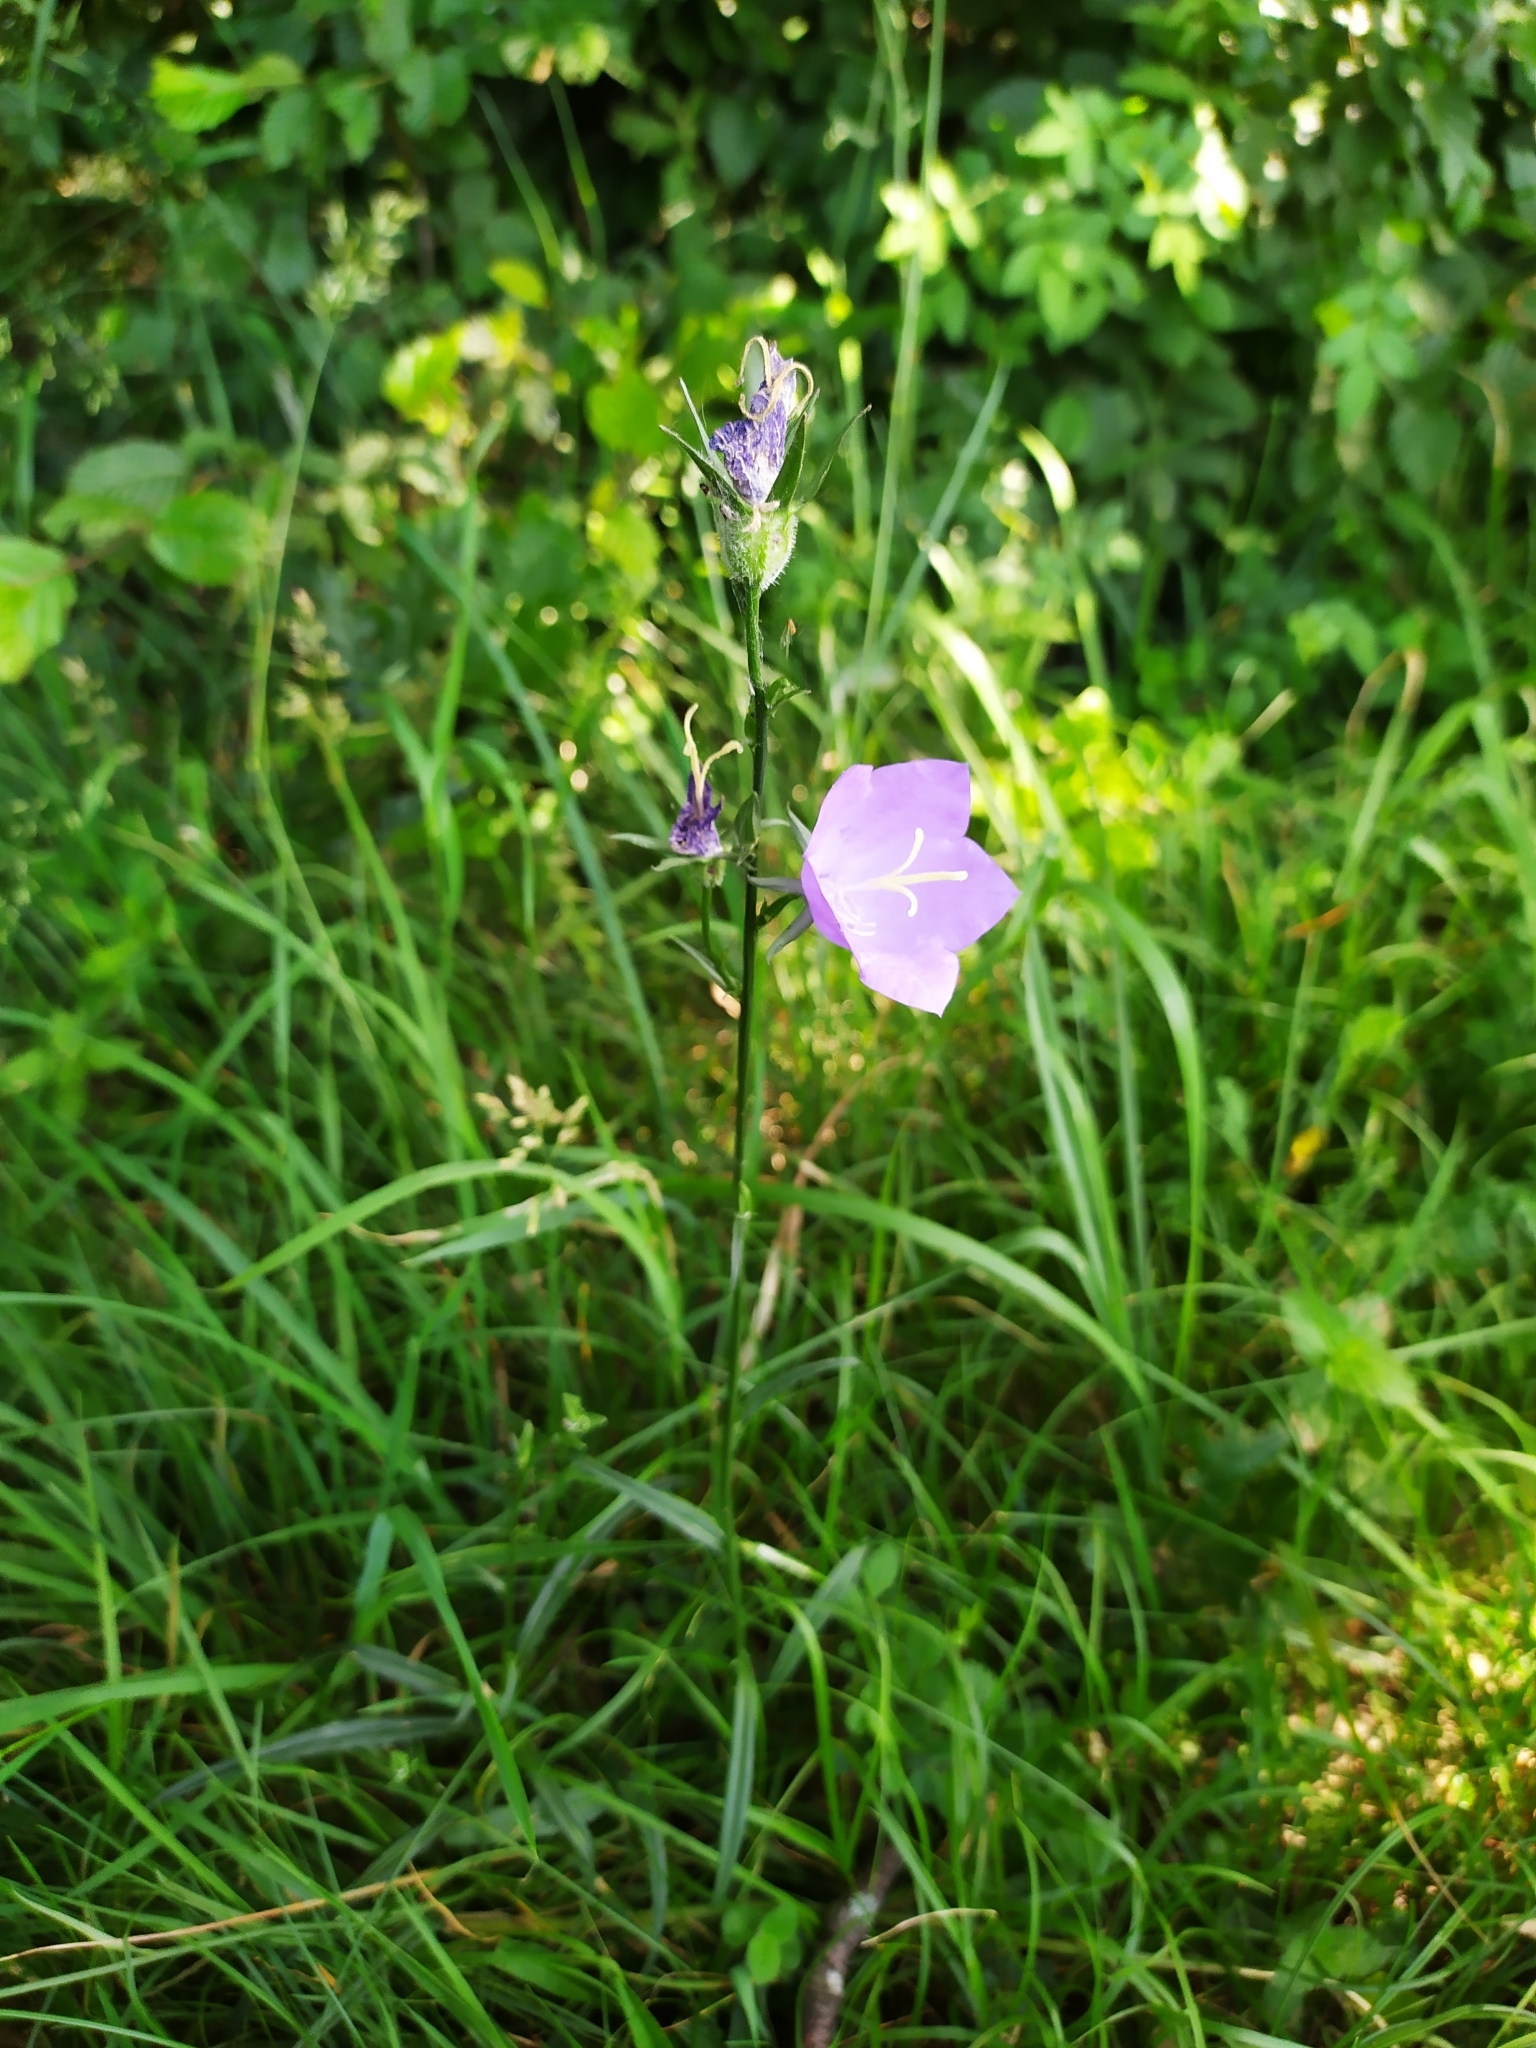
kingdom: Plantae
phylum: Tracheophyta
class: Magnoliopsida
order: Asterales
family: Campanulaceae
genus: Campanula
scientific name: Campanula persicifolia
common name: Peach-leaved bellflower
